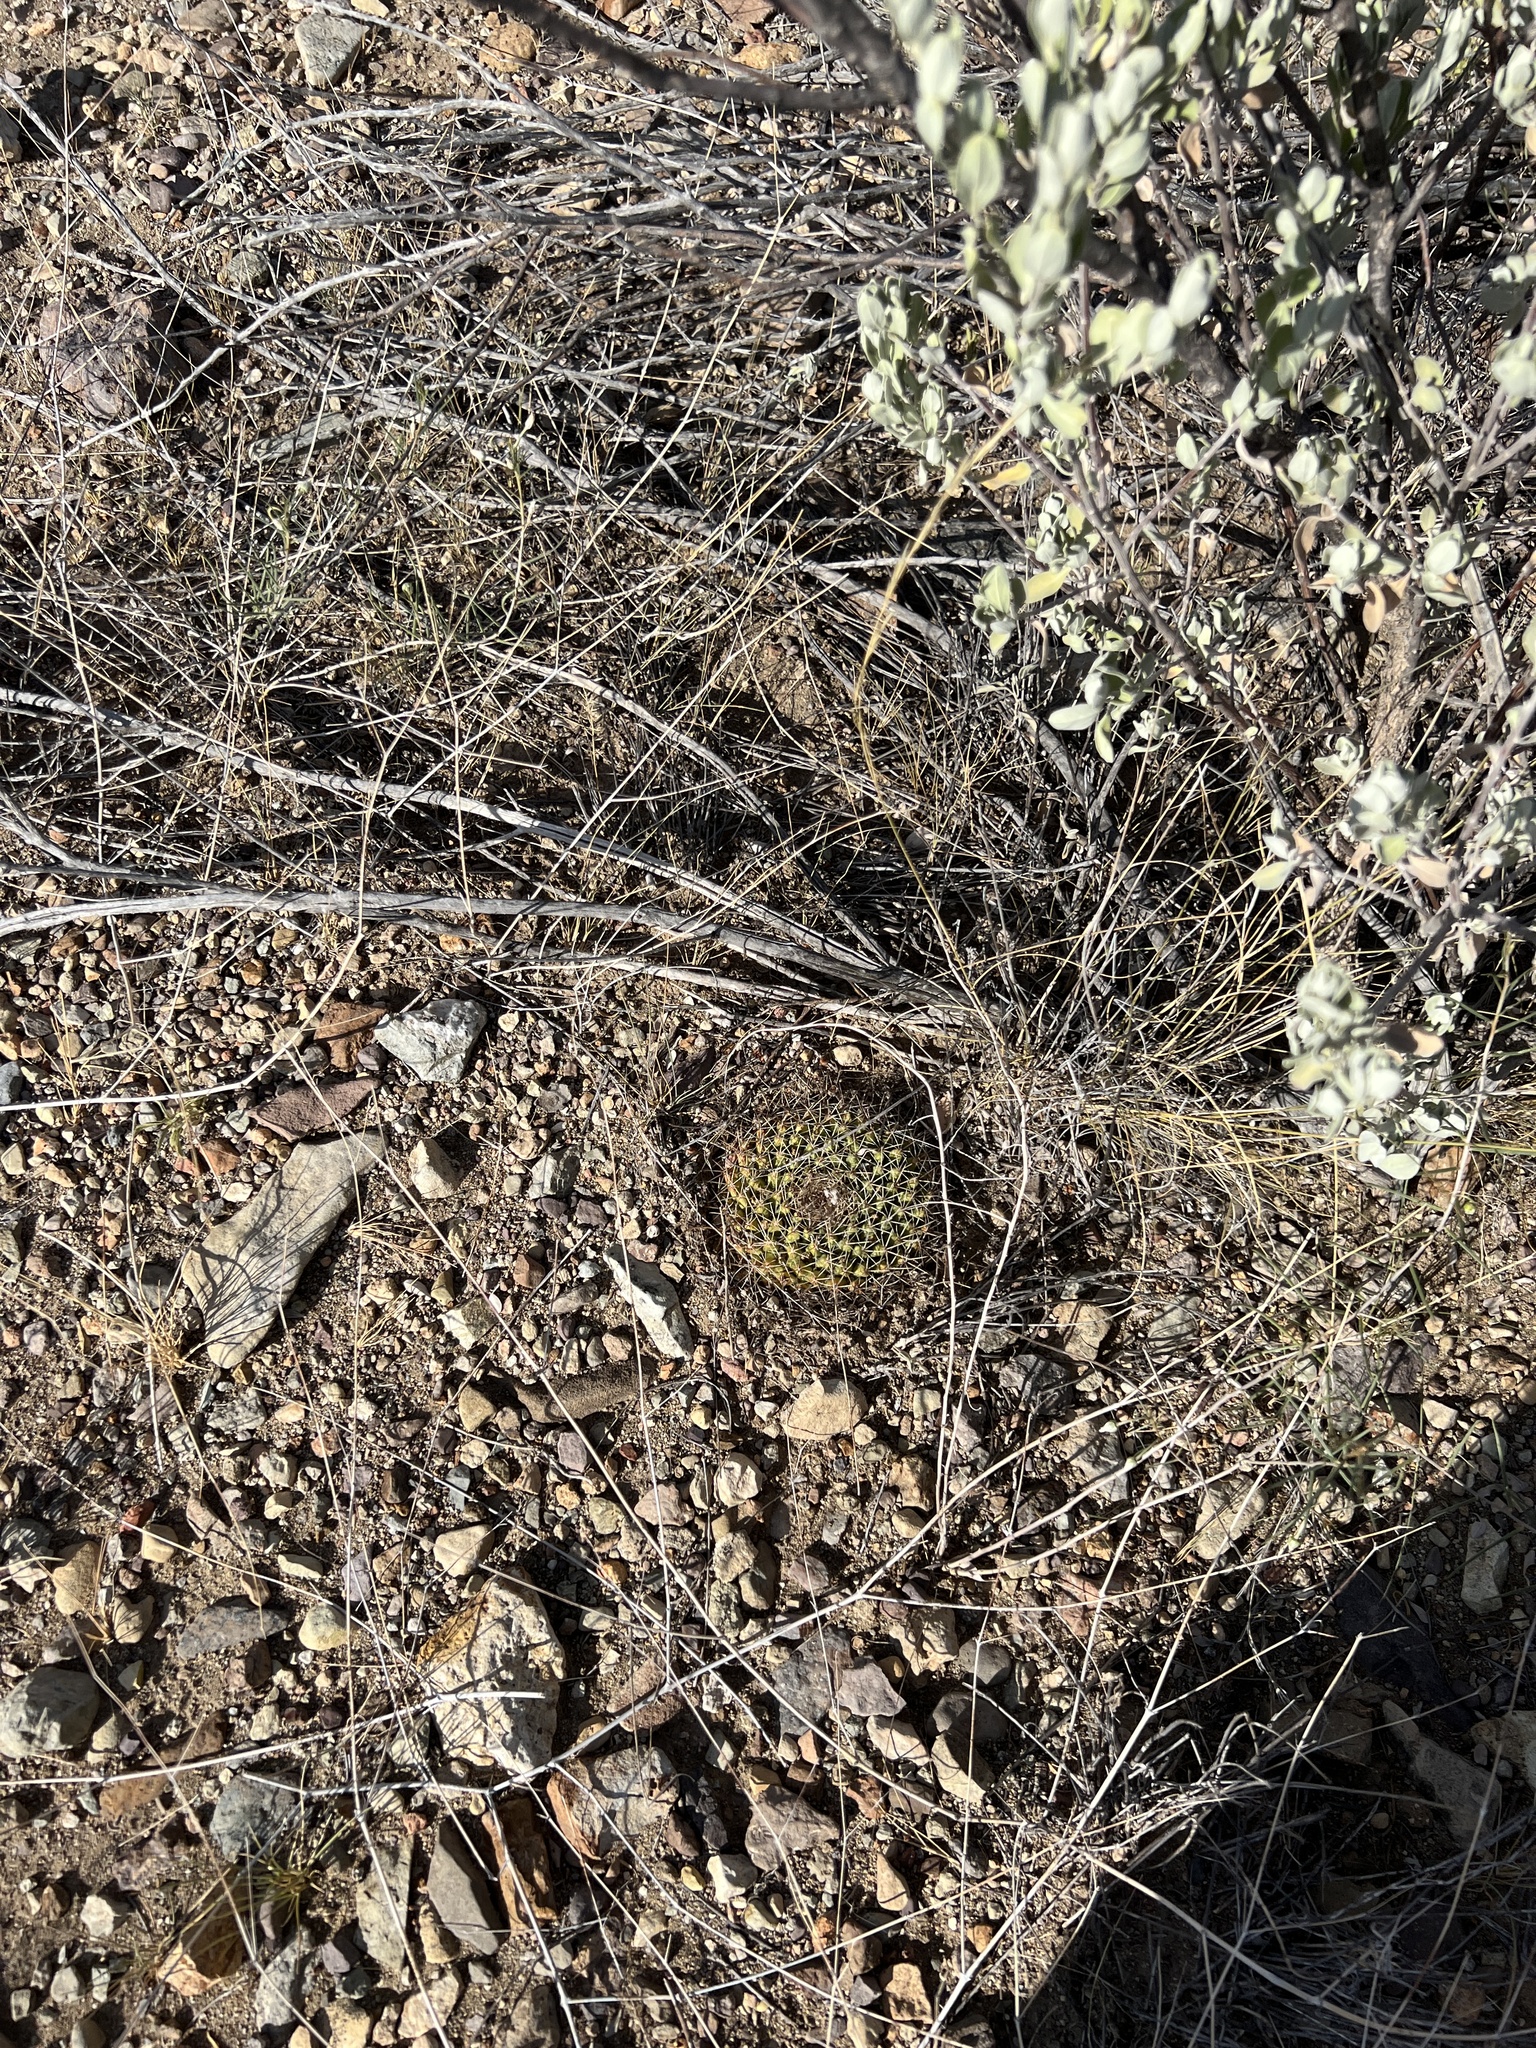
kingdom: Plantae
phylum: Tracheophyta
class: Magnoliopsida
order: Caryophyllales
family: Cactaceae
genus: Mammillaria
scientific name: Mammillaria heyderi
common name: Little nipple cactus
